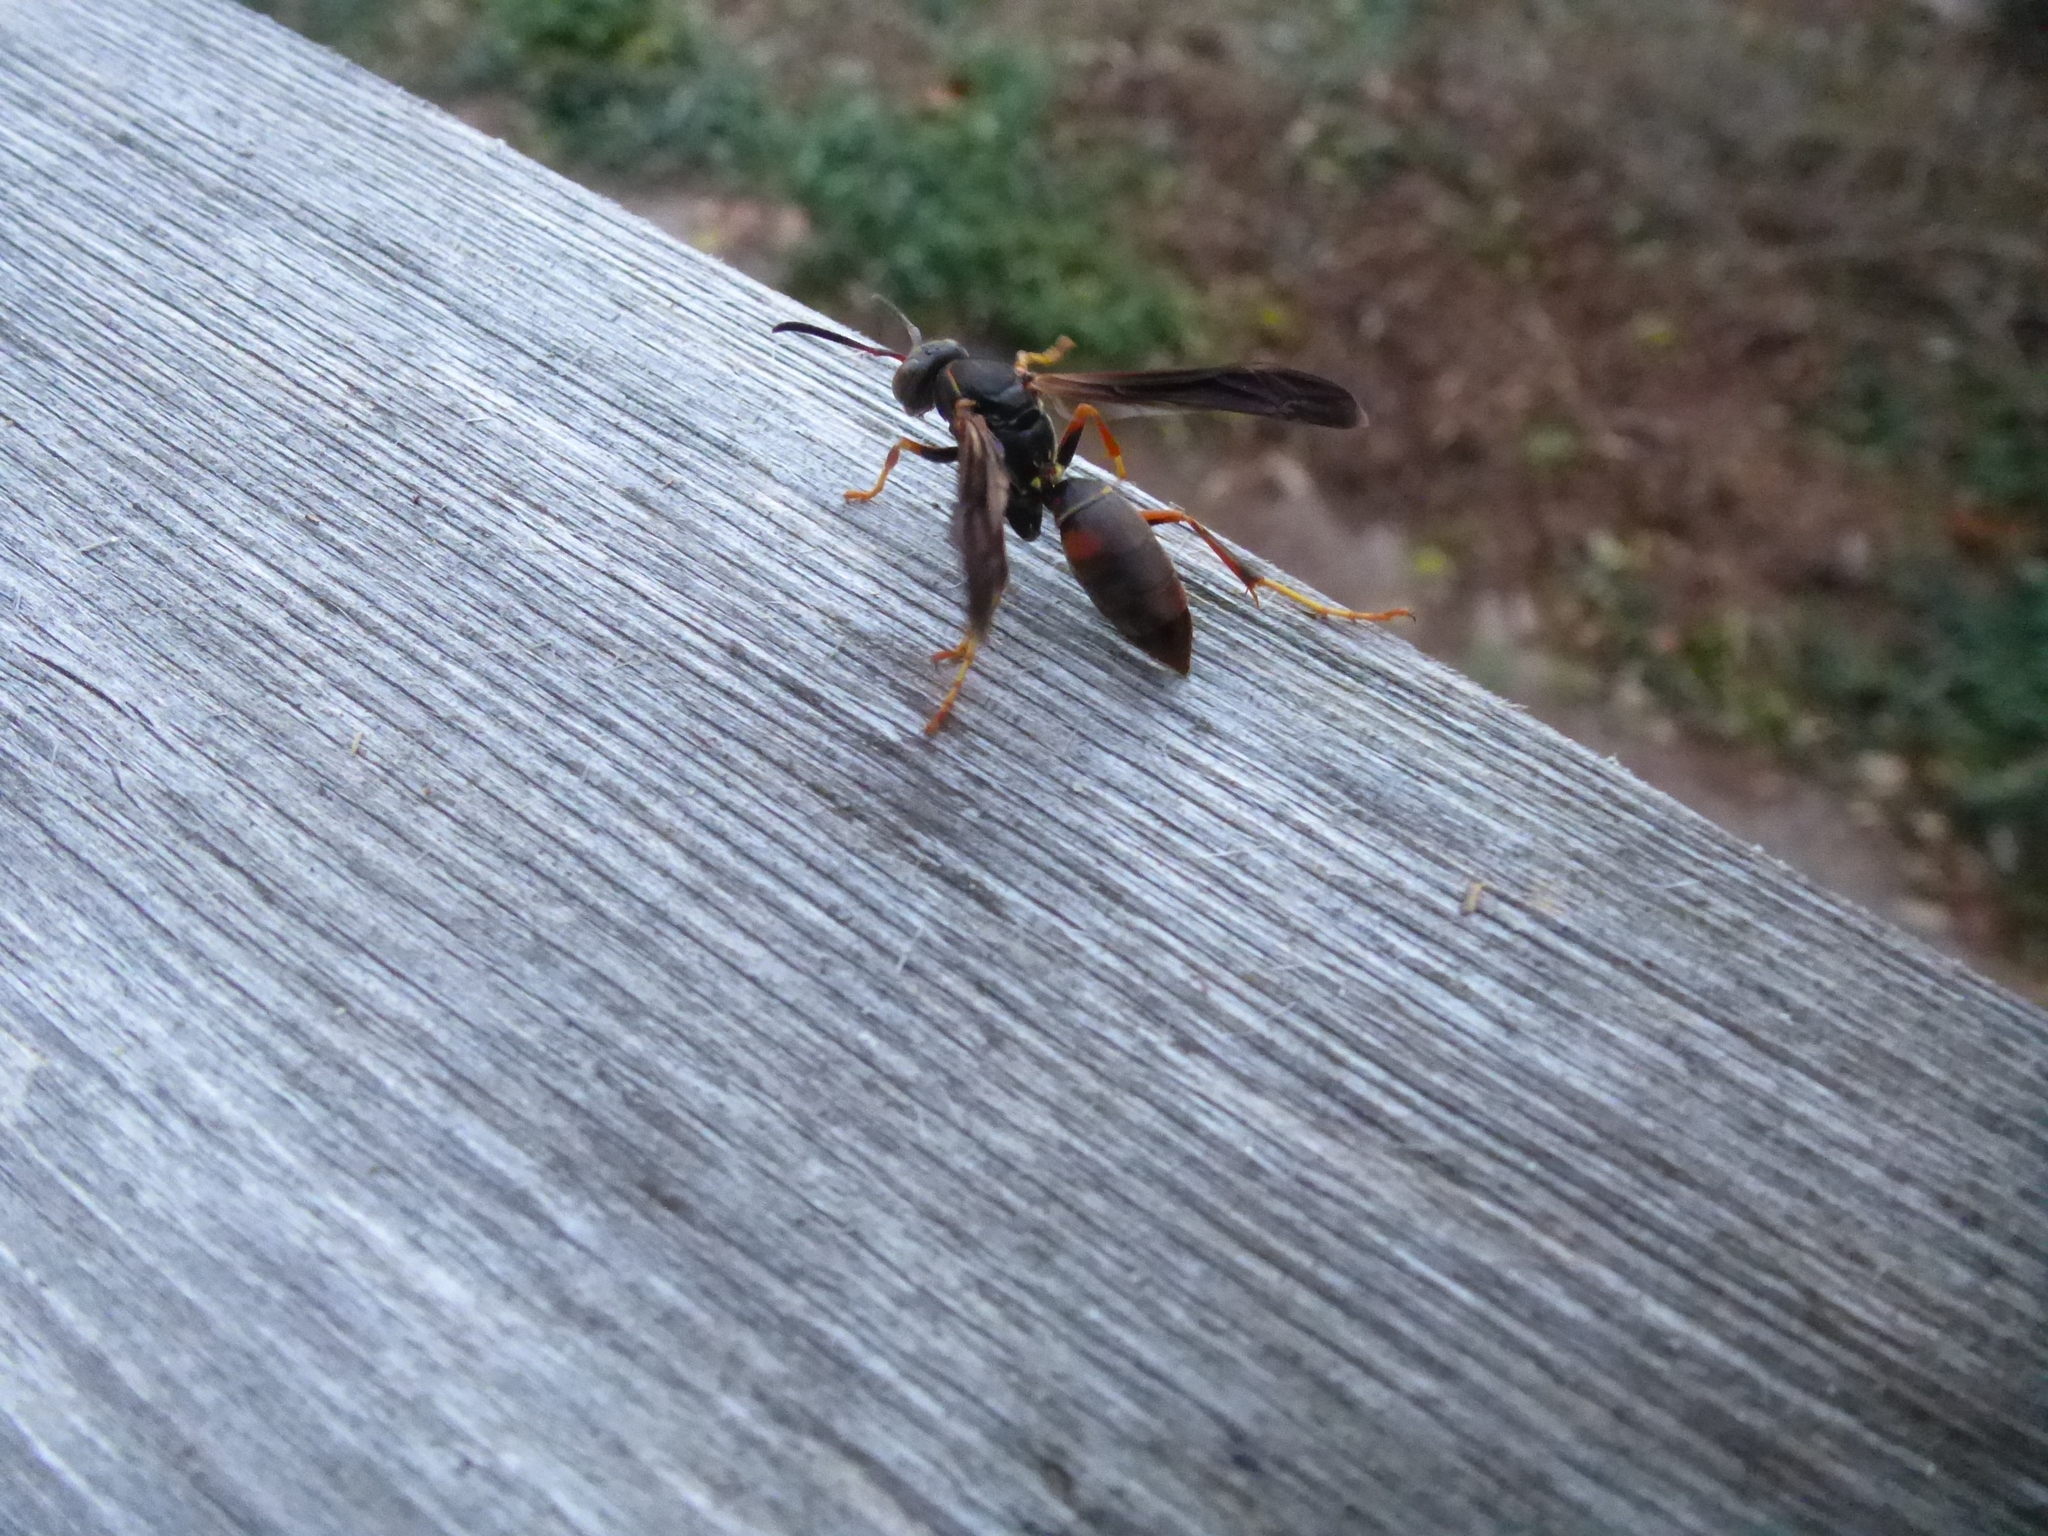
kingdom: Animalia
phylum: Arthropoda
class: Insecta
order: Hymenoptera
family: Eumenidae
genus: Polistes
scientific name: Polistes fuscatus
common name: Dark paper wasp
